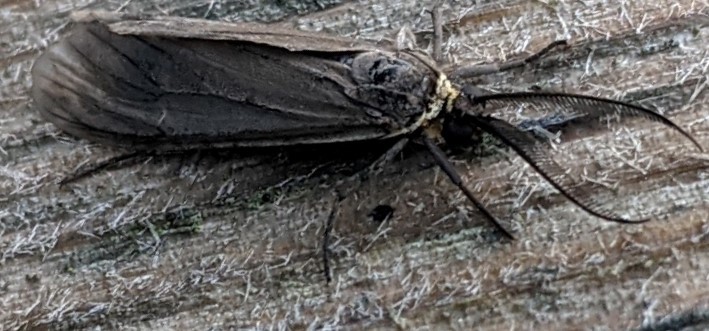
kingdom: Animalia
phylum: Arthropoda
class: Insecta
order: Lepidoptera
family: Erebidae
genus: Cisseps
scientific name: Cisseps fulvicollis
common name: Yellow-collared scape moth
